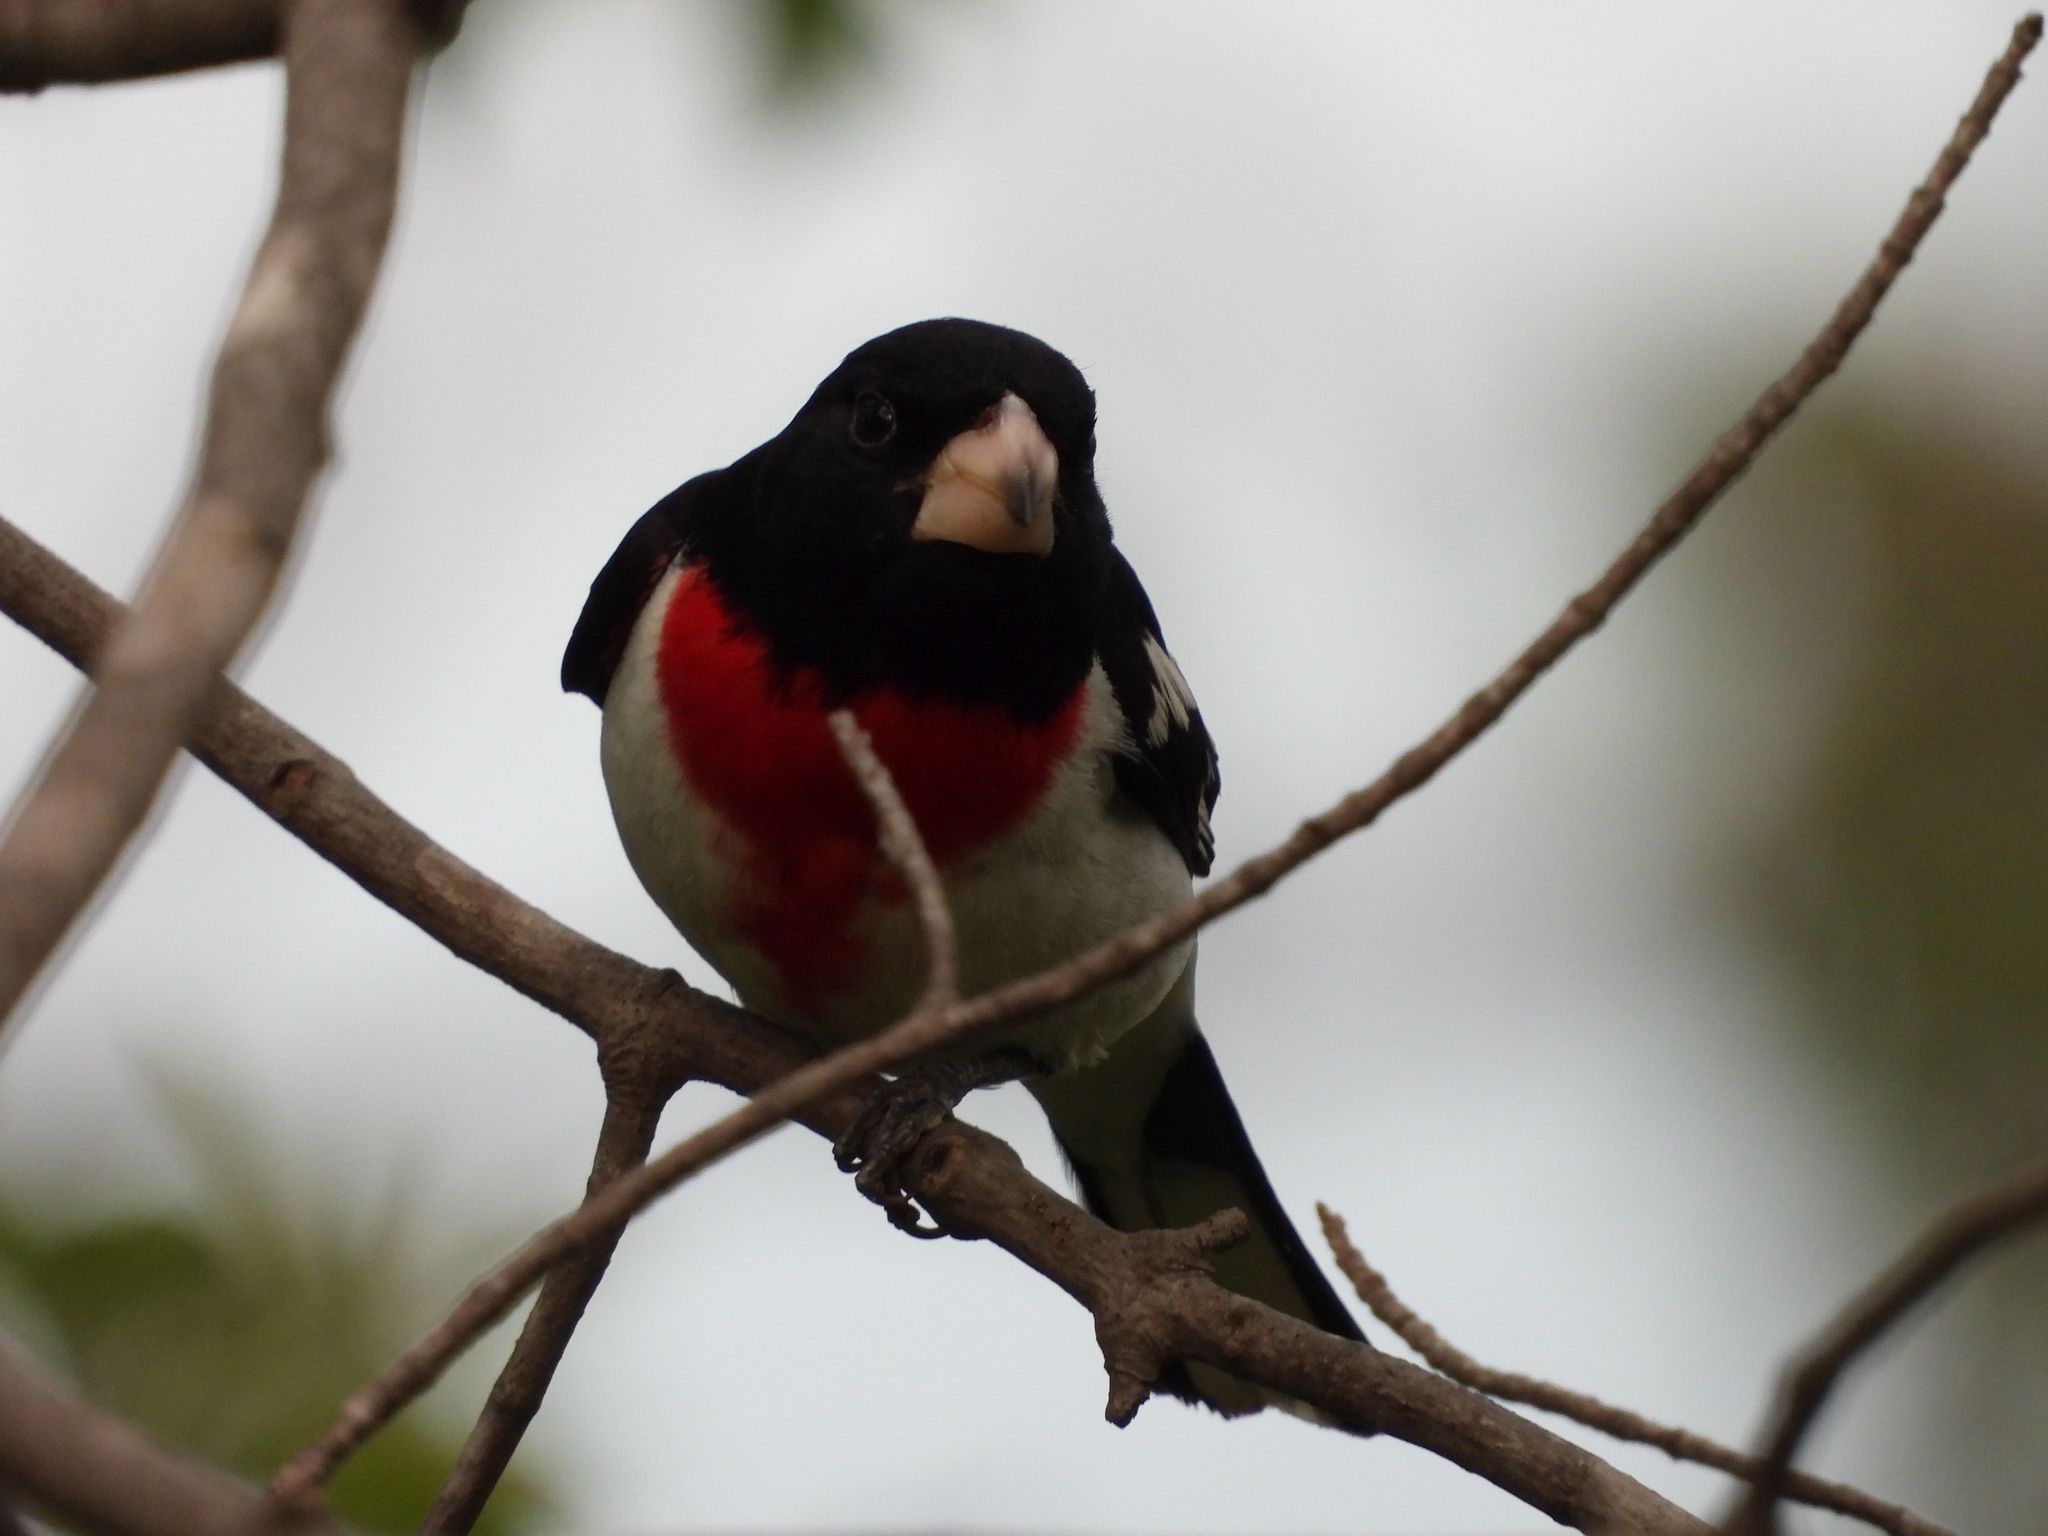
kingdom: Animalia
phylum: Chordata
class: Aves
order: Passeriformes
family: Cardinalidae
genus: Pheucticus
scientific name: Pheucticus ludovicianus
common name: Rose-breasted grosbeak
